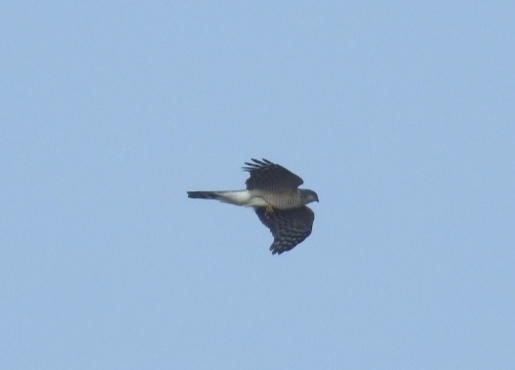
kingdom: Animalia
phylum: Chordata
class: Aves
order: Accipitriformes
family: Accipitridae
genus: Accipiter
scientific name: Accipiter nisus
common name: Eurasian sparrowhawk
